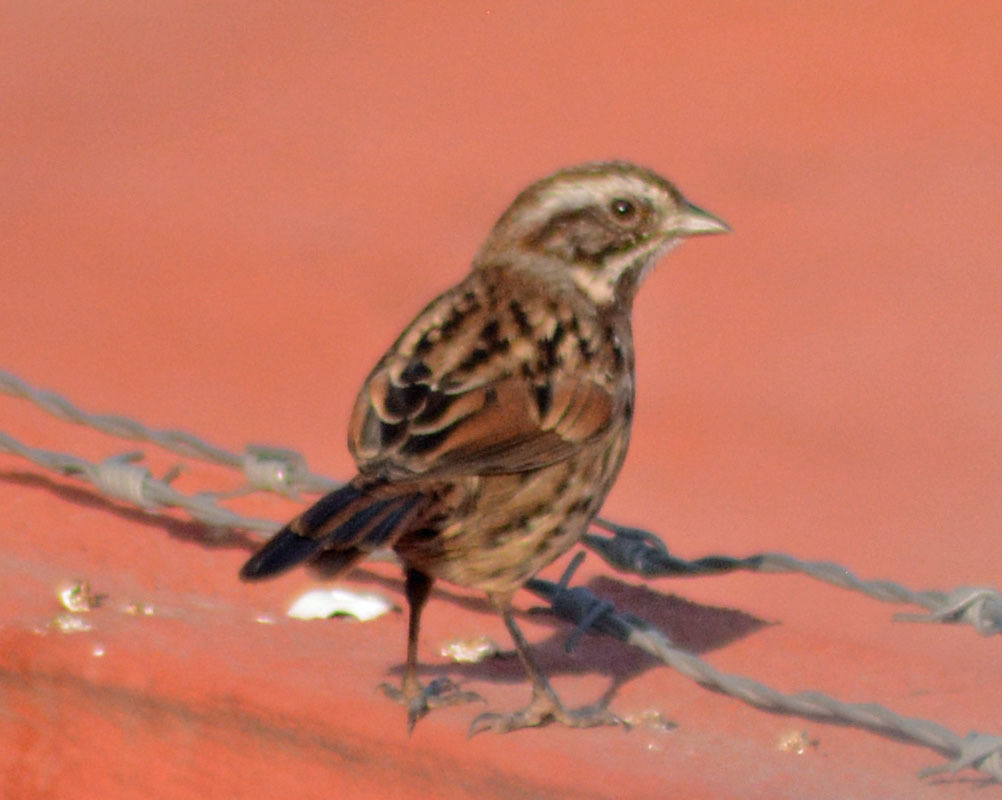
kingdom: Animalia
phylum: Chordata
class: Aves
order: Passeriformes
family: Passerellidae
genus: Melospiza
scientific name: Melospiza melodia
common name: Song sparrow
